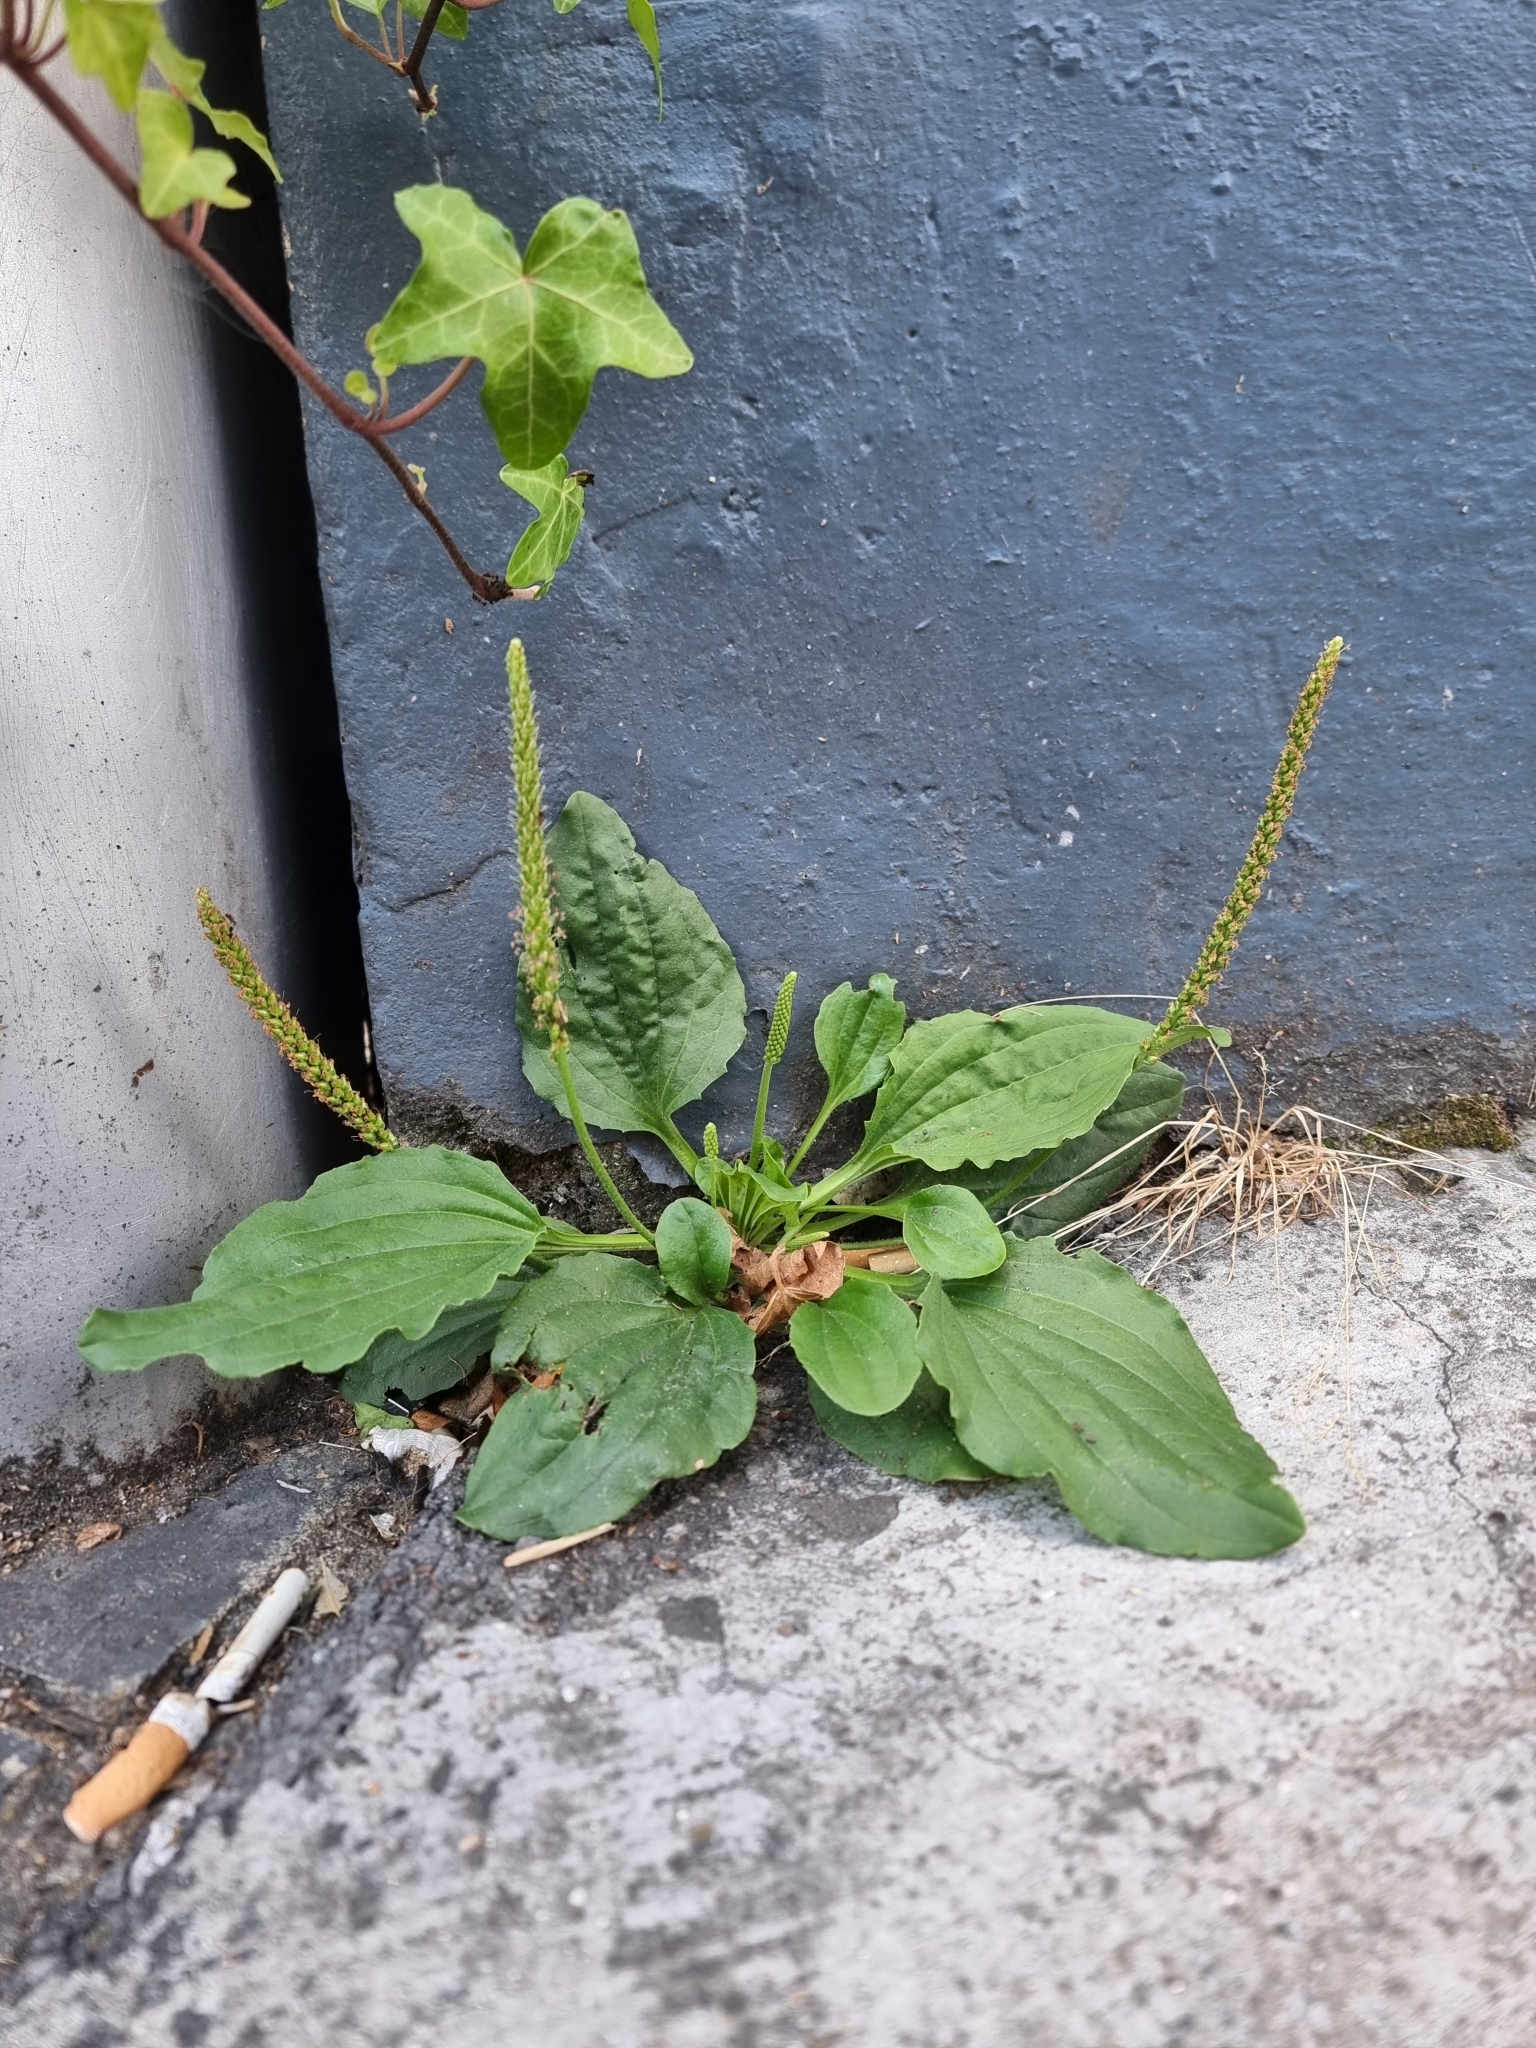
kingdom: Plantae
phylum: Tracheophyta
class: Magnoliopsida
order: Lamiales
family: Plantaginaceae
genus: Plantago
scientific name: Plantago major
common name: Common plantain
